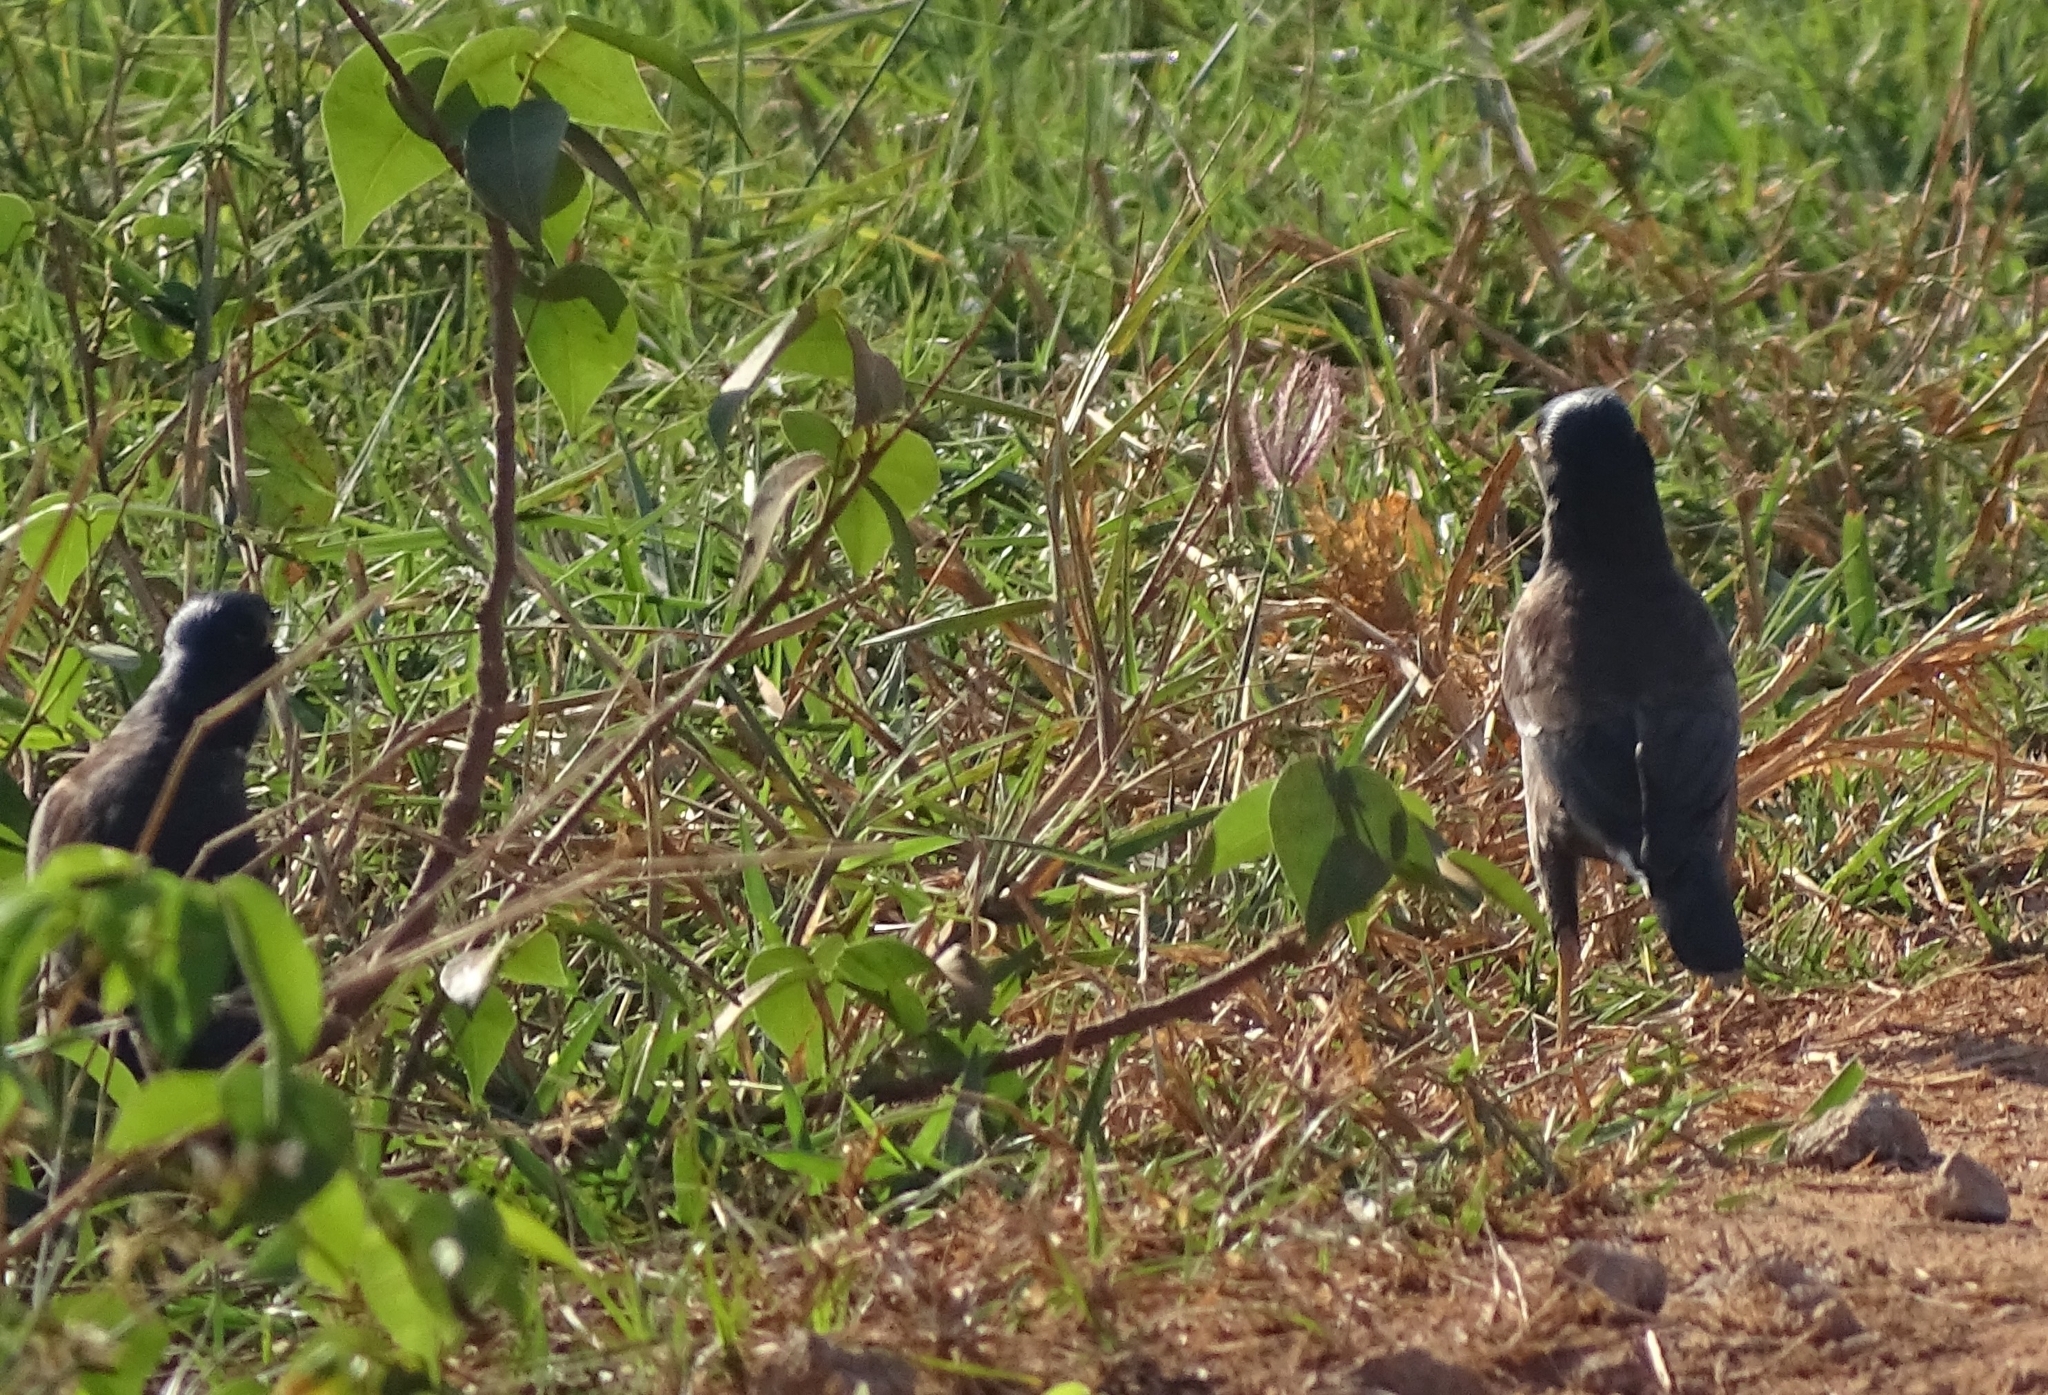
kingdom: Animalia
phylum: Chordata
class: Aves
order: Passeriformes
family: Sturnidae
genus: Acridotheres
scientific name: Acridotheres tristis
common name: Common myna
